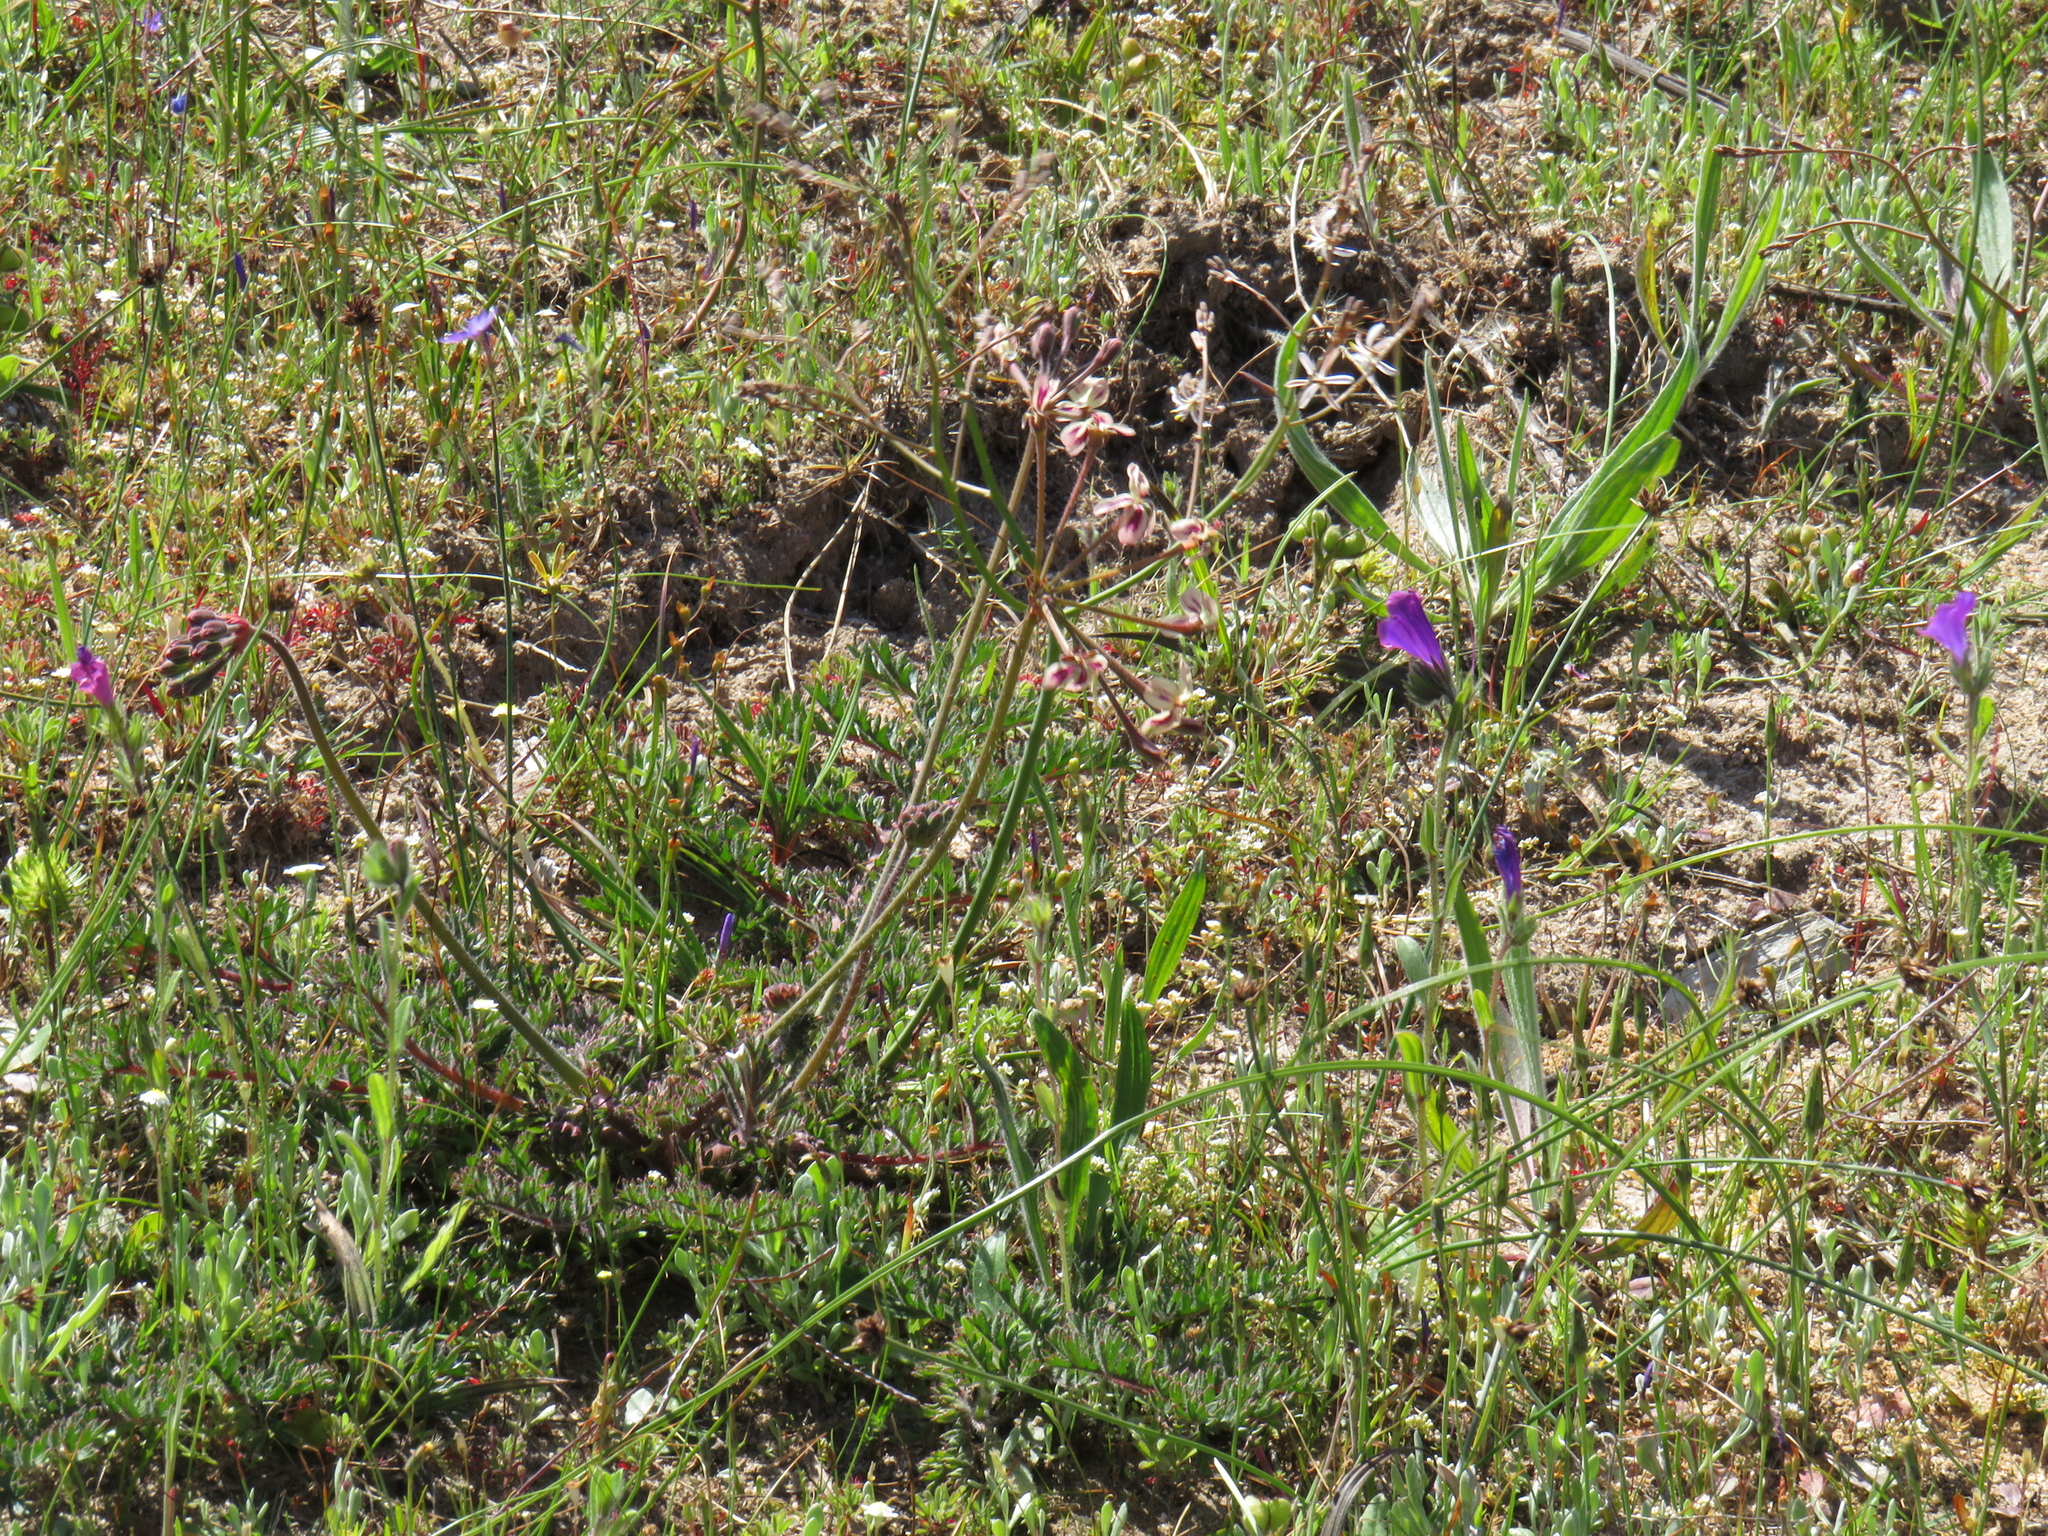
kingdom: Plantae
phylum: Tracheophyta
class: Magnoliopsida
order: Geraniales
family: Geraniaceae
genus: Pelargonium
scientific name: Pelargonium triste
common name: Night-scent pelargonium
